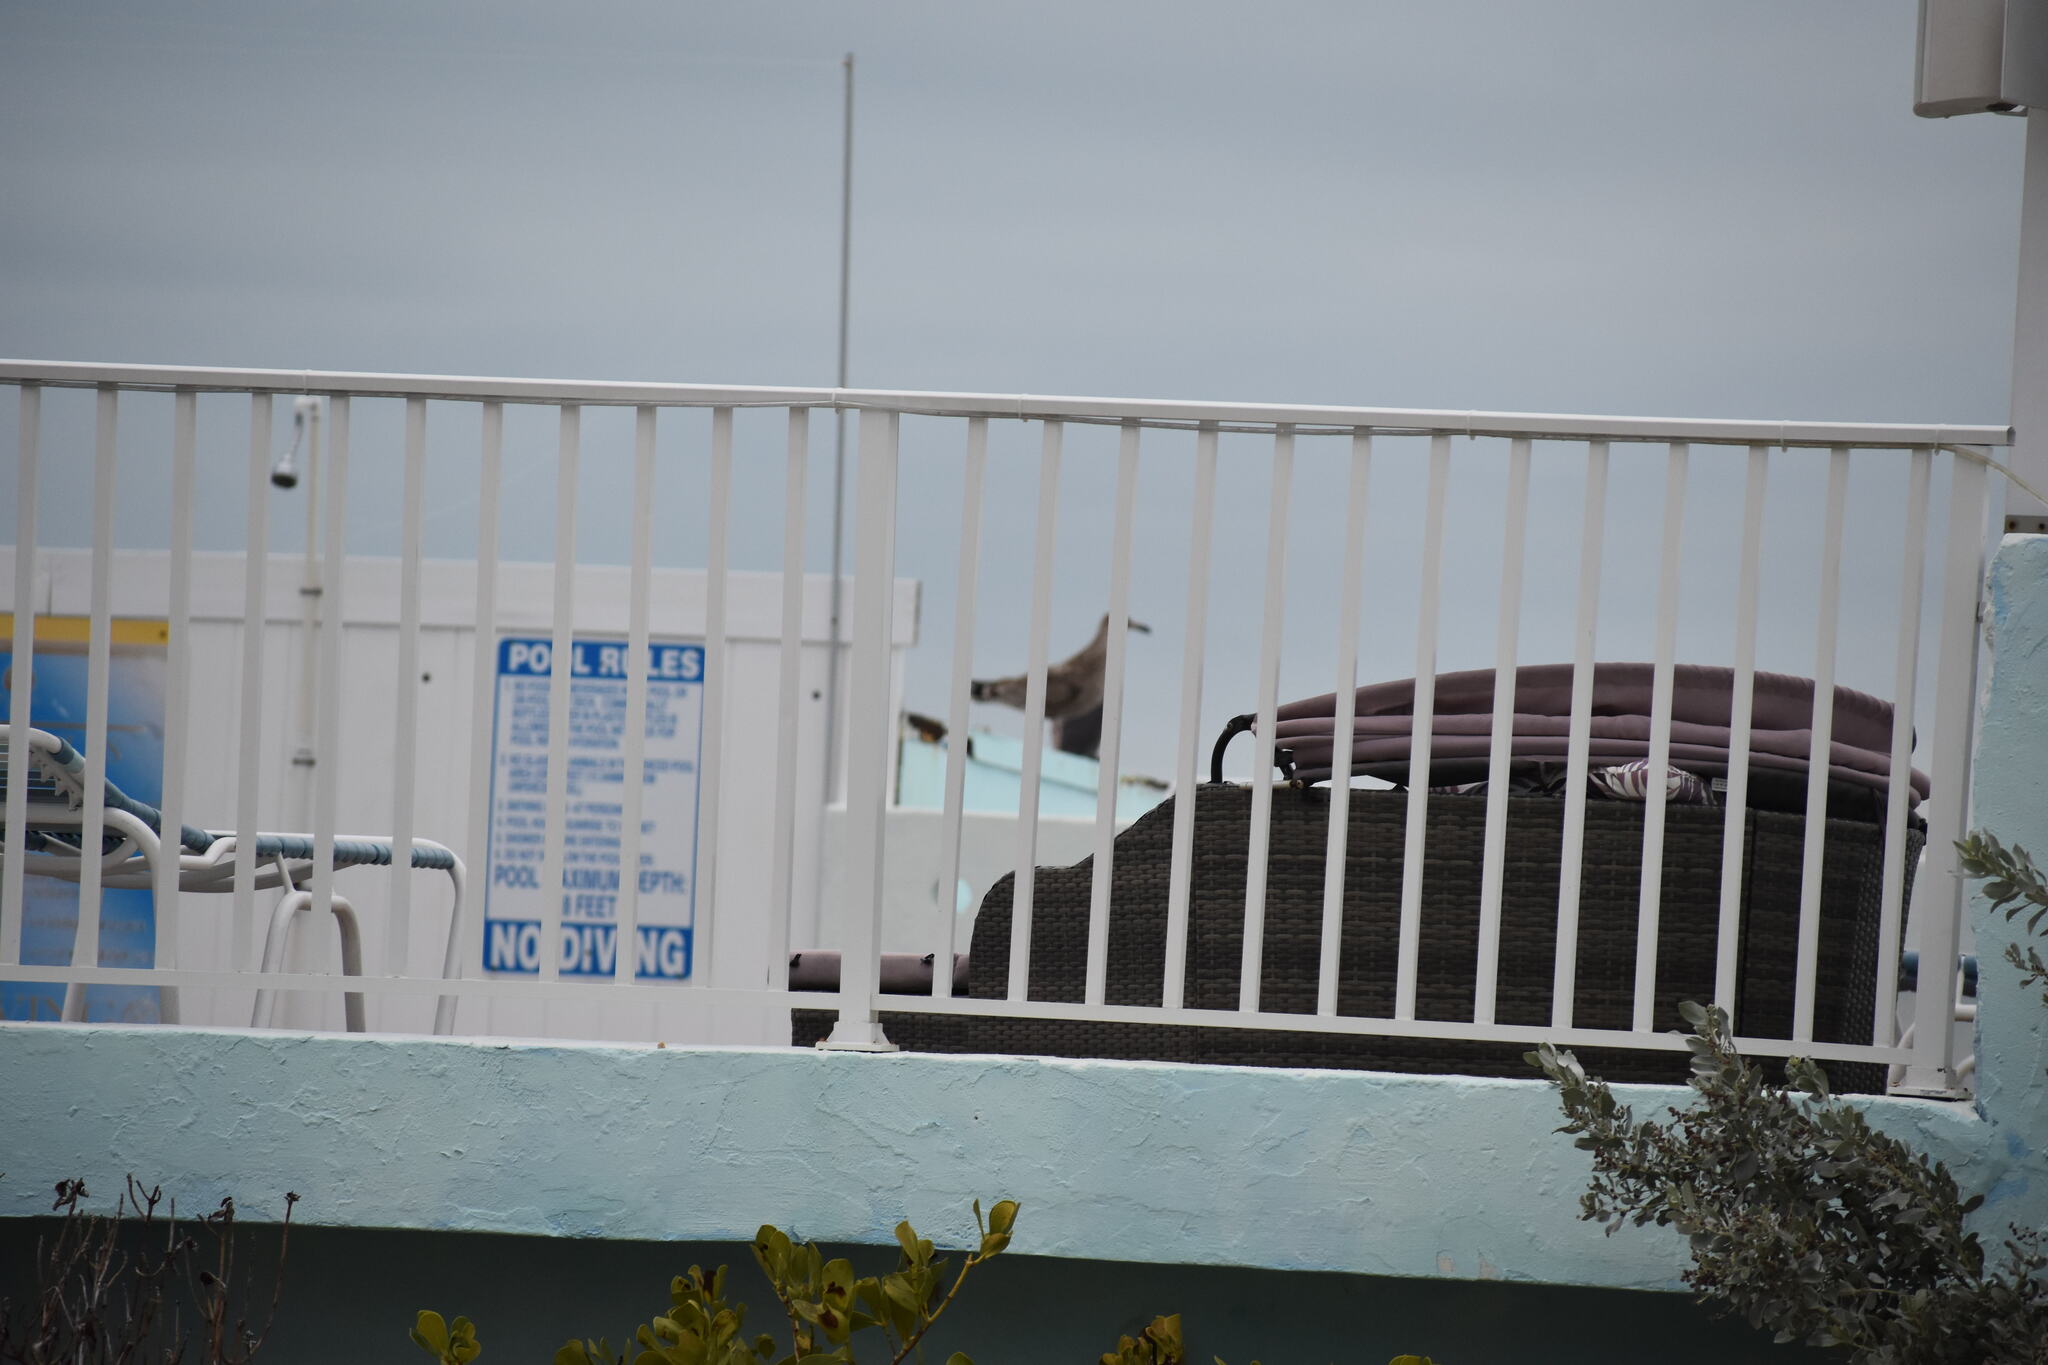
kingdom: Animalia
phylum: Chordata
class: Aves
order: Charadriiformes
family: Laridae
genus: Leucophaeus
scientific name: Leucophaeus atricilla
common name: Laughing gull
